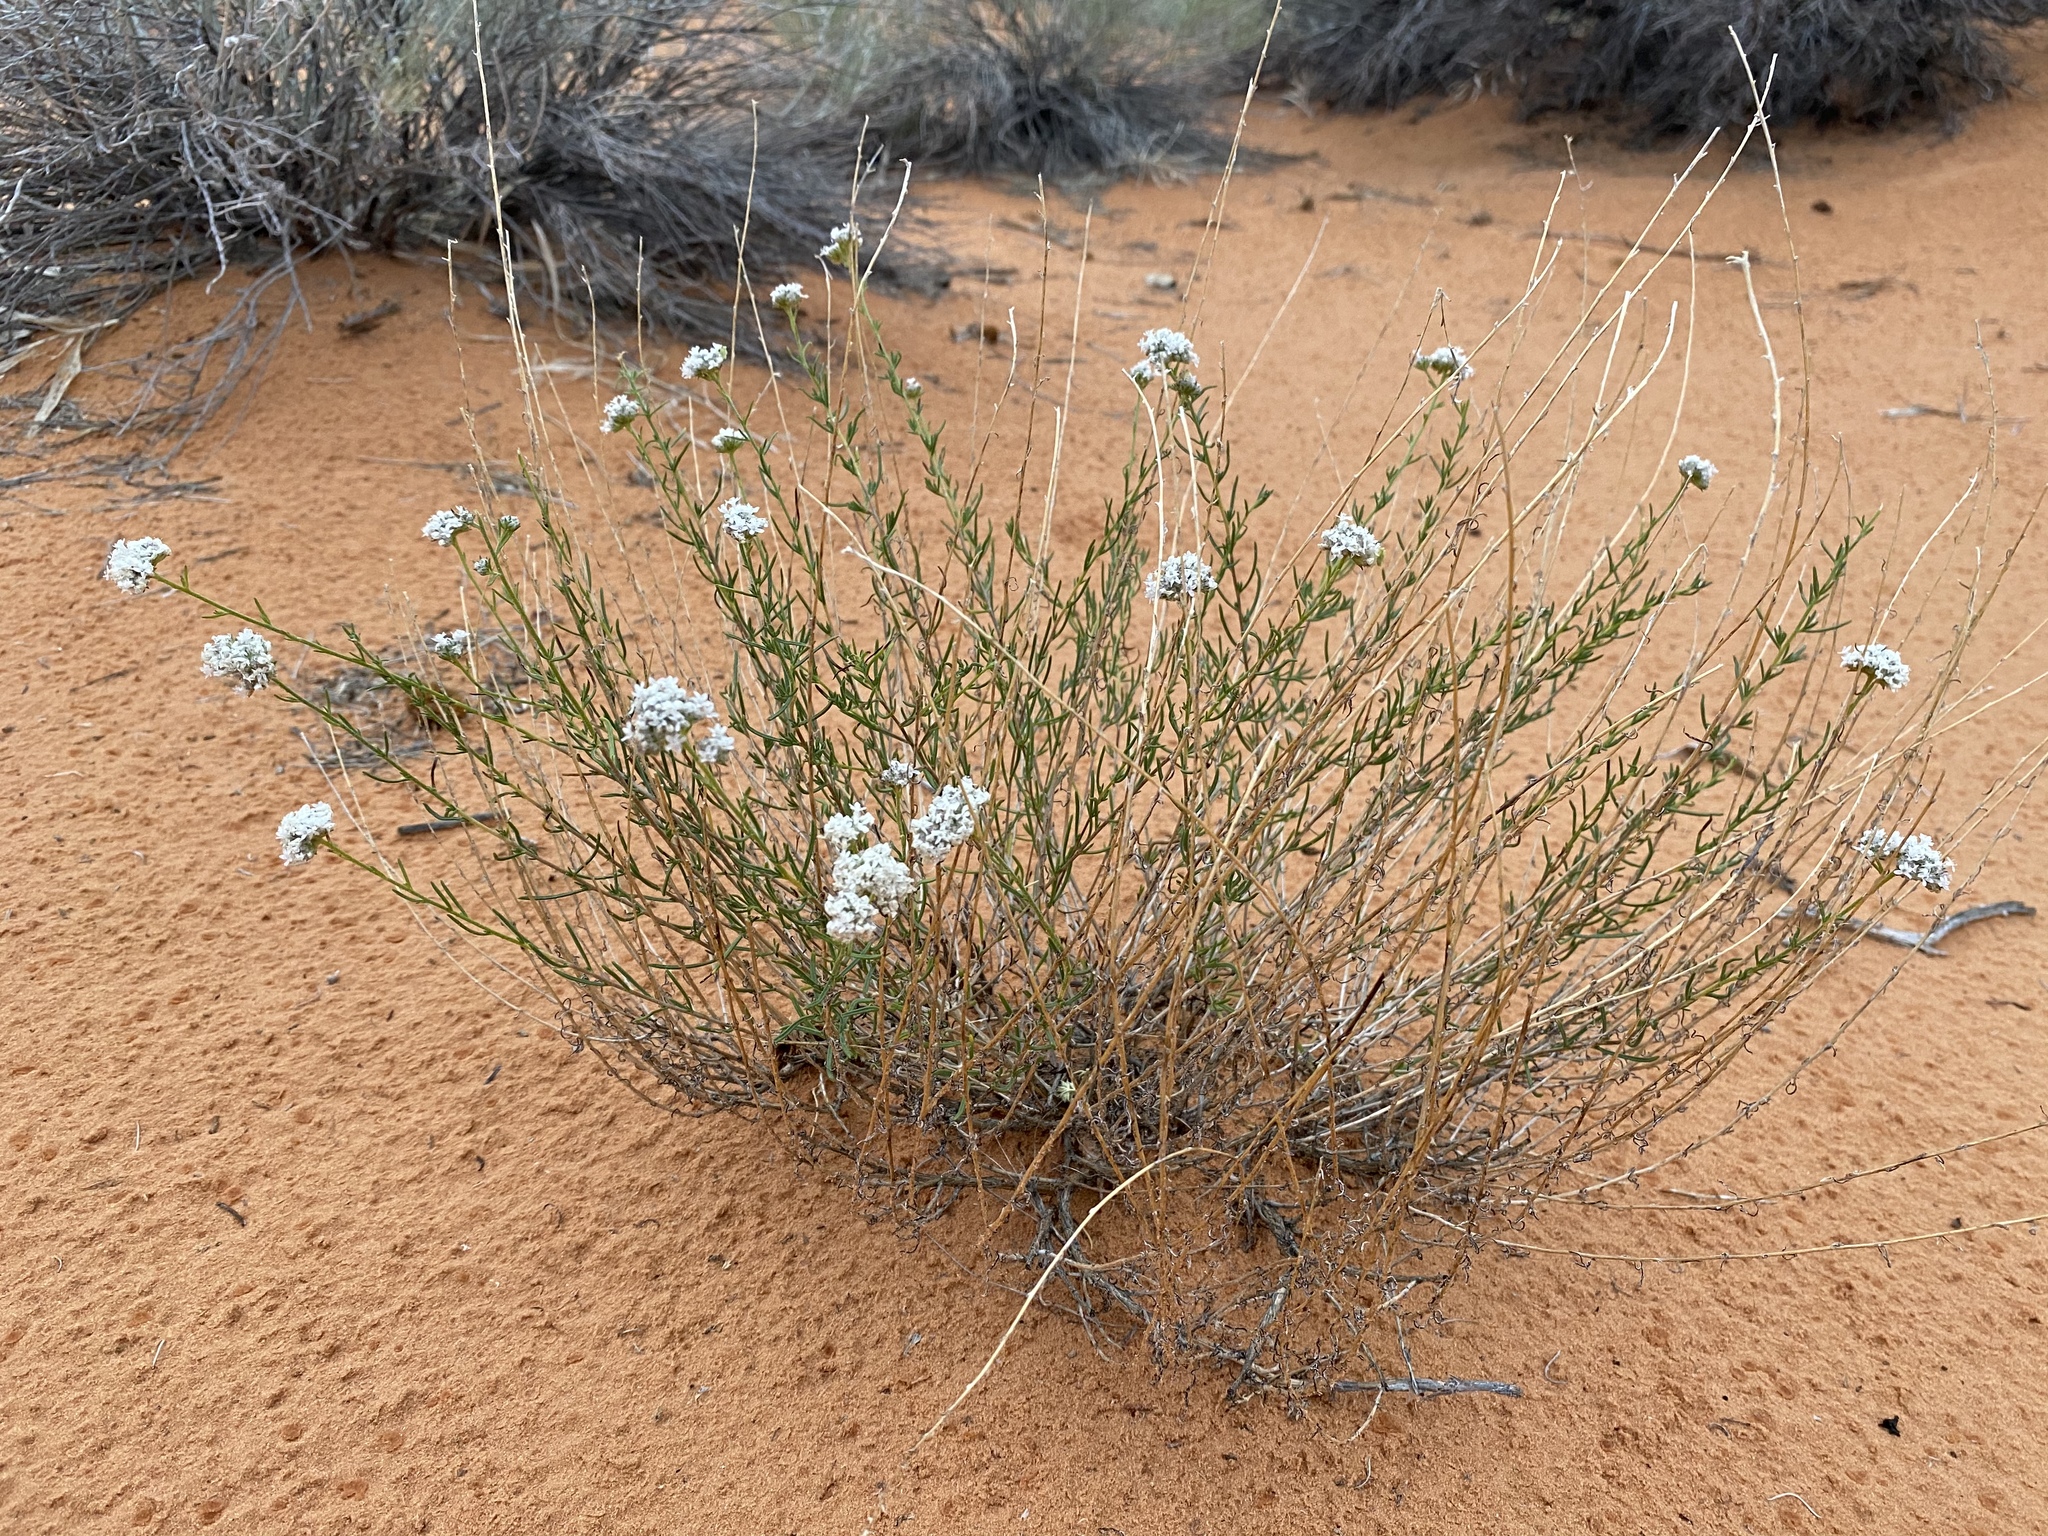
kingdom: Plantae
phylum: Tracheophyta
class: Magnoliopsida
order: Ericales
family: Polemoniaceae
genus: Ipomopsis
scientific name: Ipomopsis congesta
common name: Ball-head gilia
